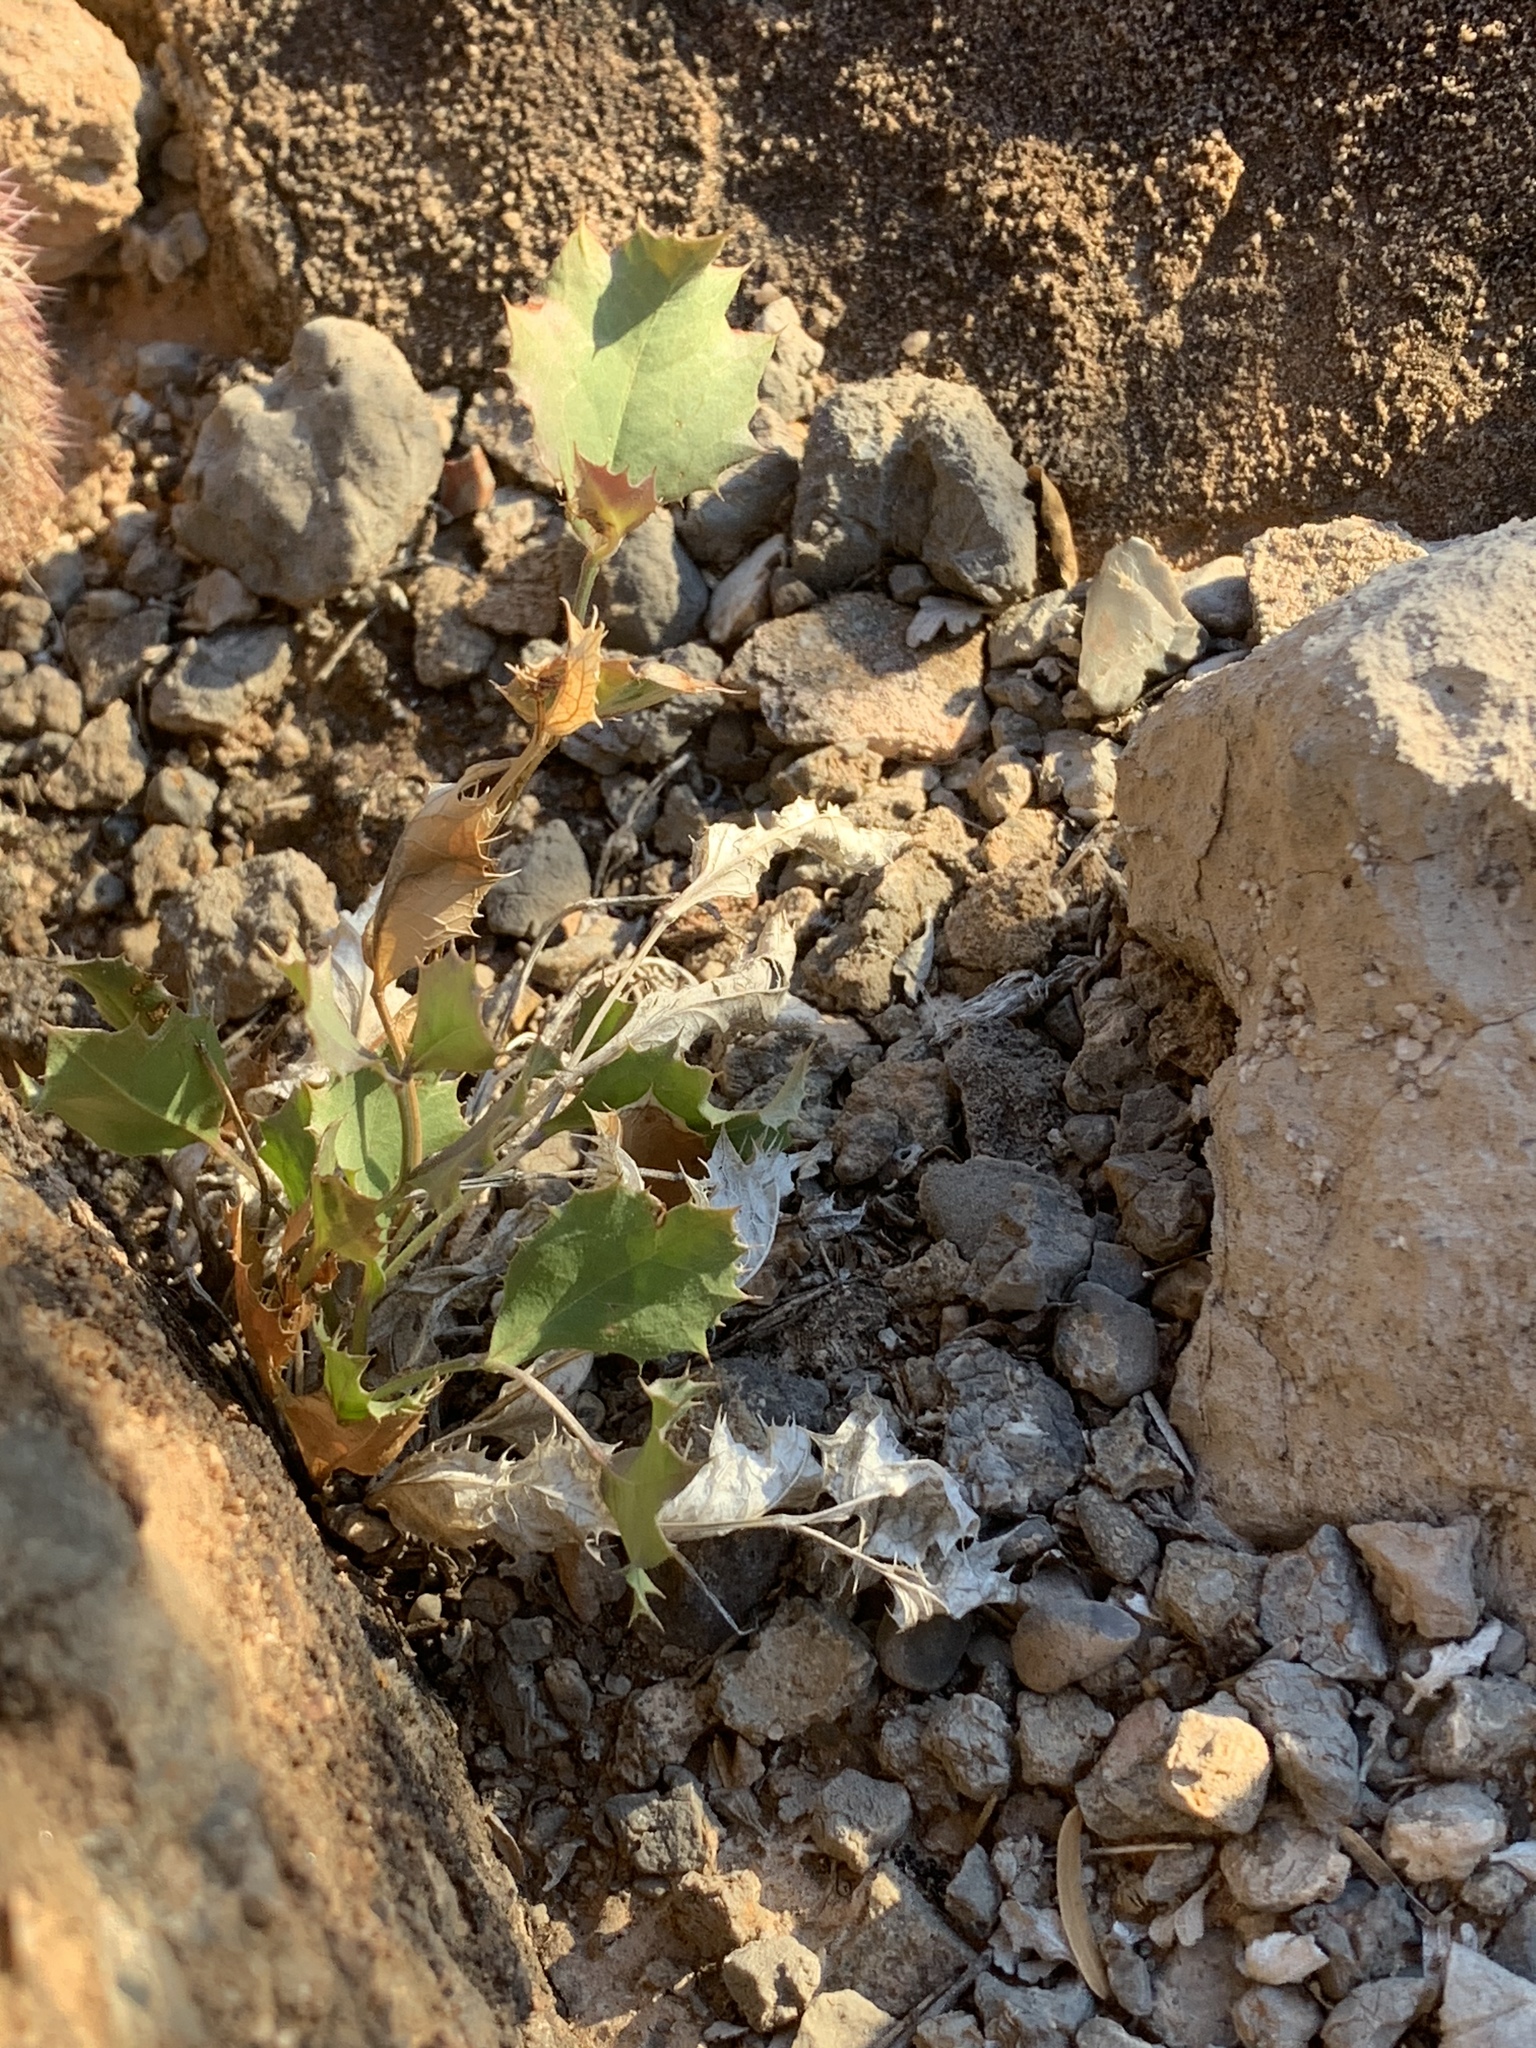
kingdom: Plantae
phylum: Tracheophyta
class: Magnoliopsida
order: Asterales
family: Asteraceae
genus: Acourtia
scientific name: Acourtia nana
